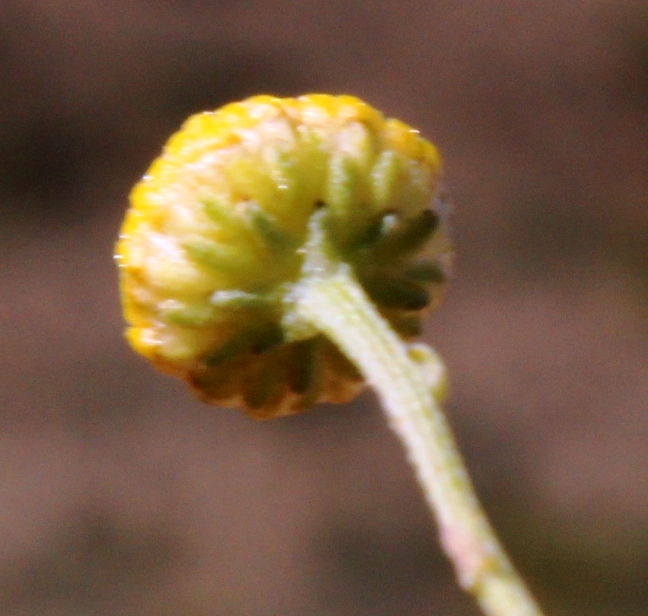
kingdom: Plantae
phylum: Tracheophyta
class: Magnoliopsida
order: Asterales
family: Asteraceae
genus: Pentzia
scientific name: Pentzia incana
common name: African sheepbush
